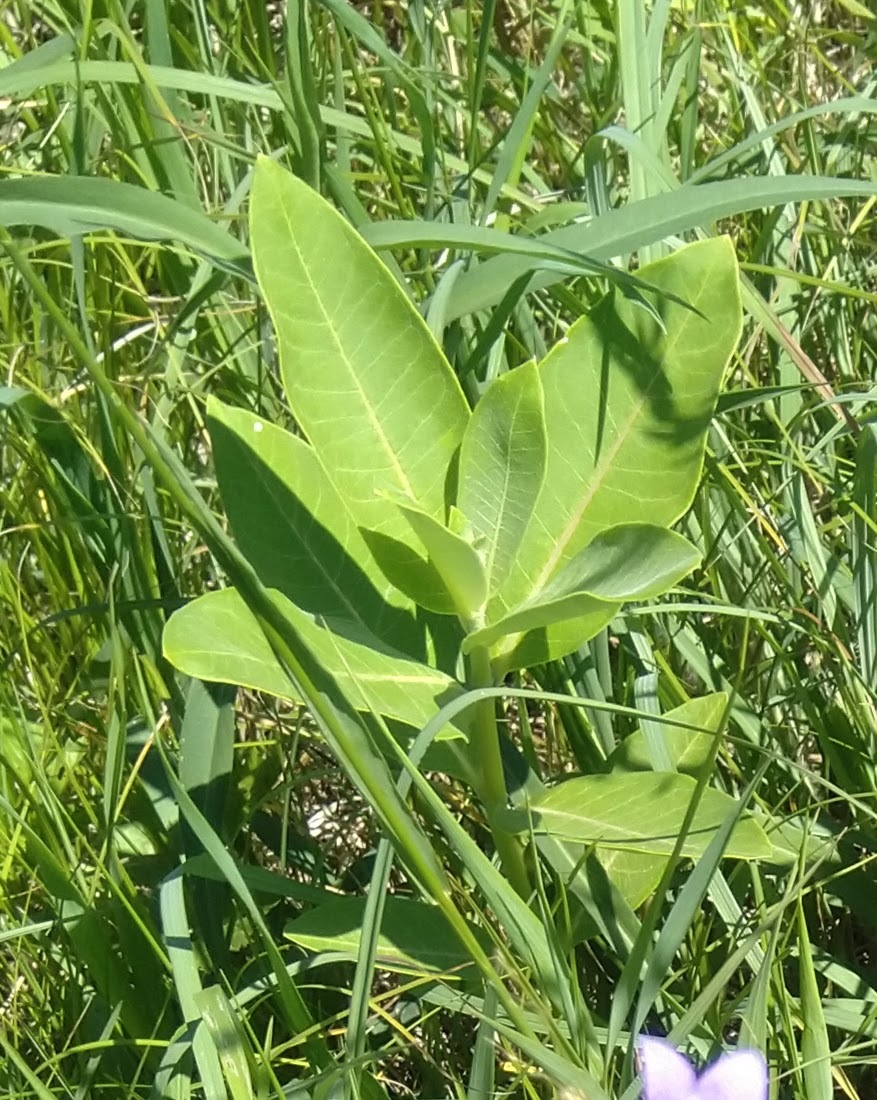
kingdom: Plantae
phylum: Tracheophyta
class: Magnoliopsida
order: Gentianales
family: Apocynaceae
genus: Asclepias
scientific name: Asclepias syriaca
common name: Common milkweed
